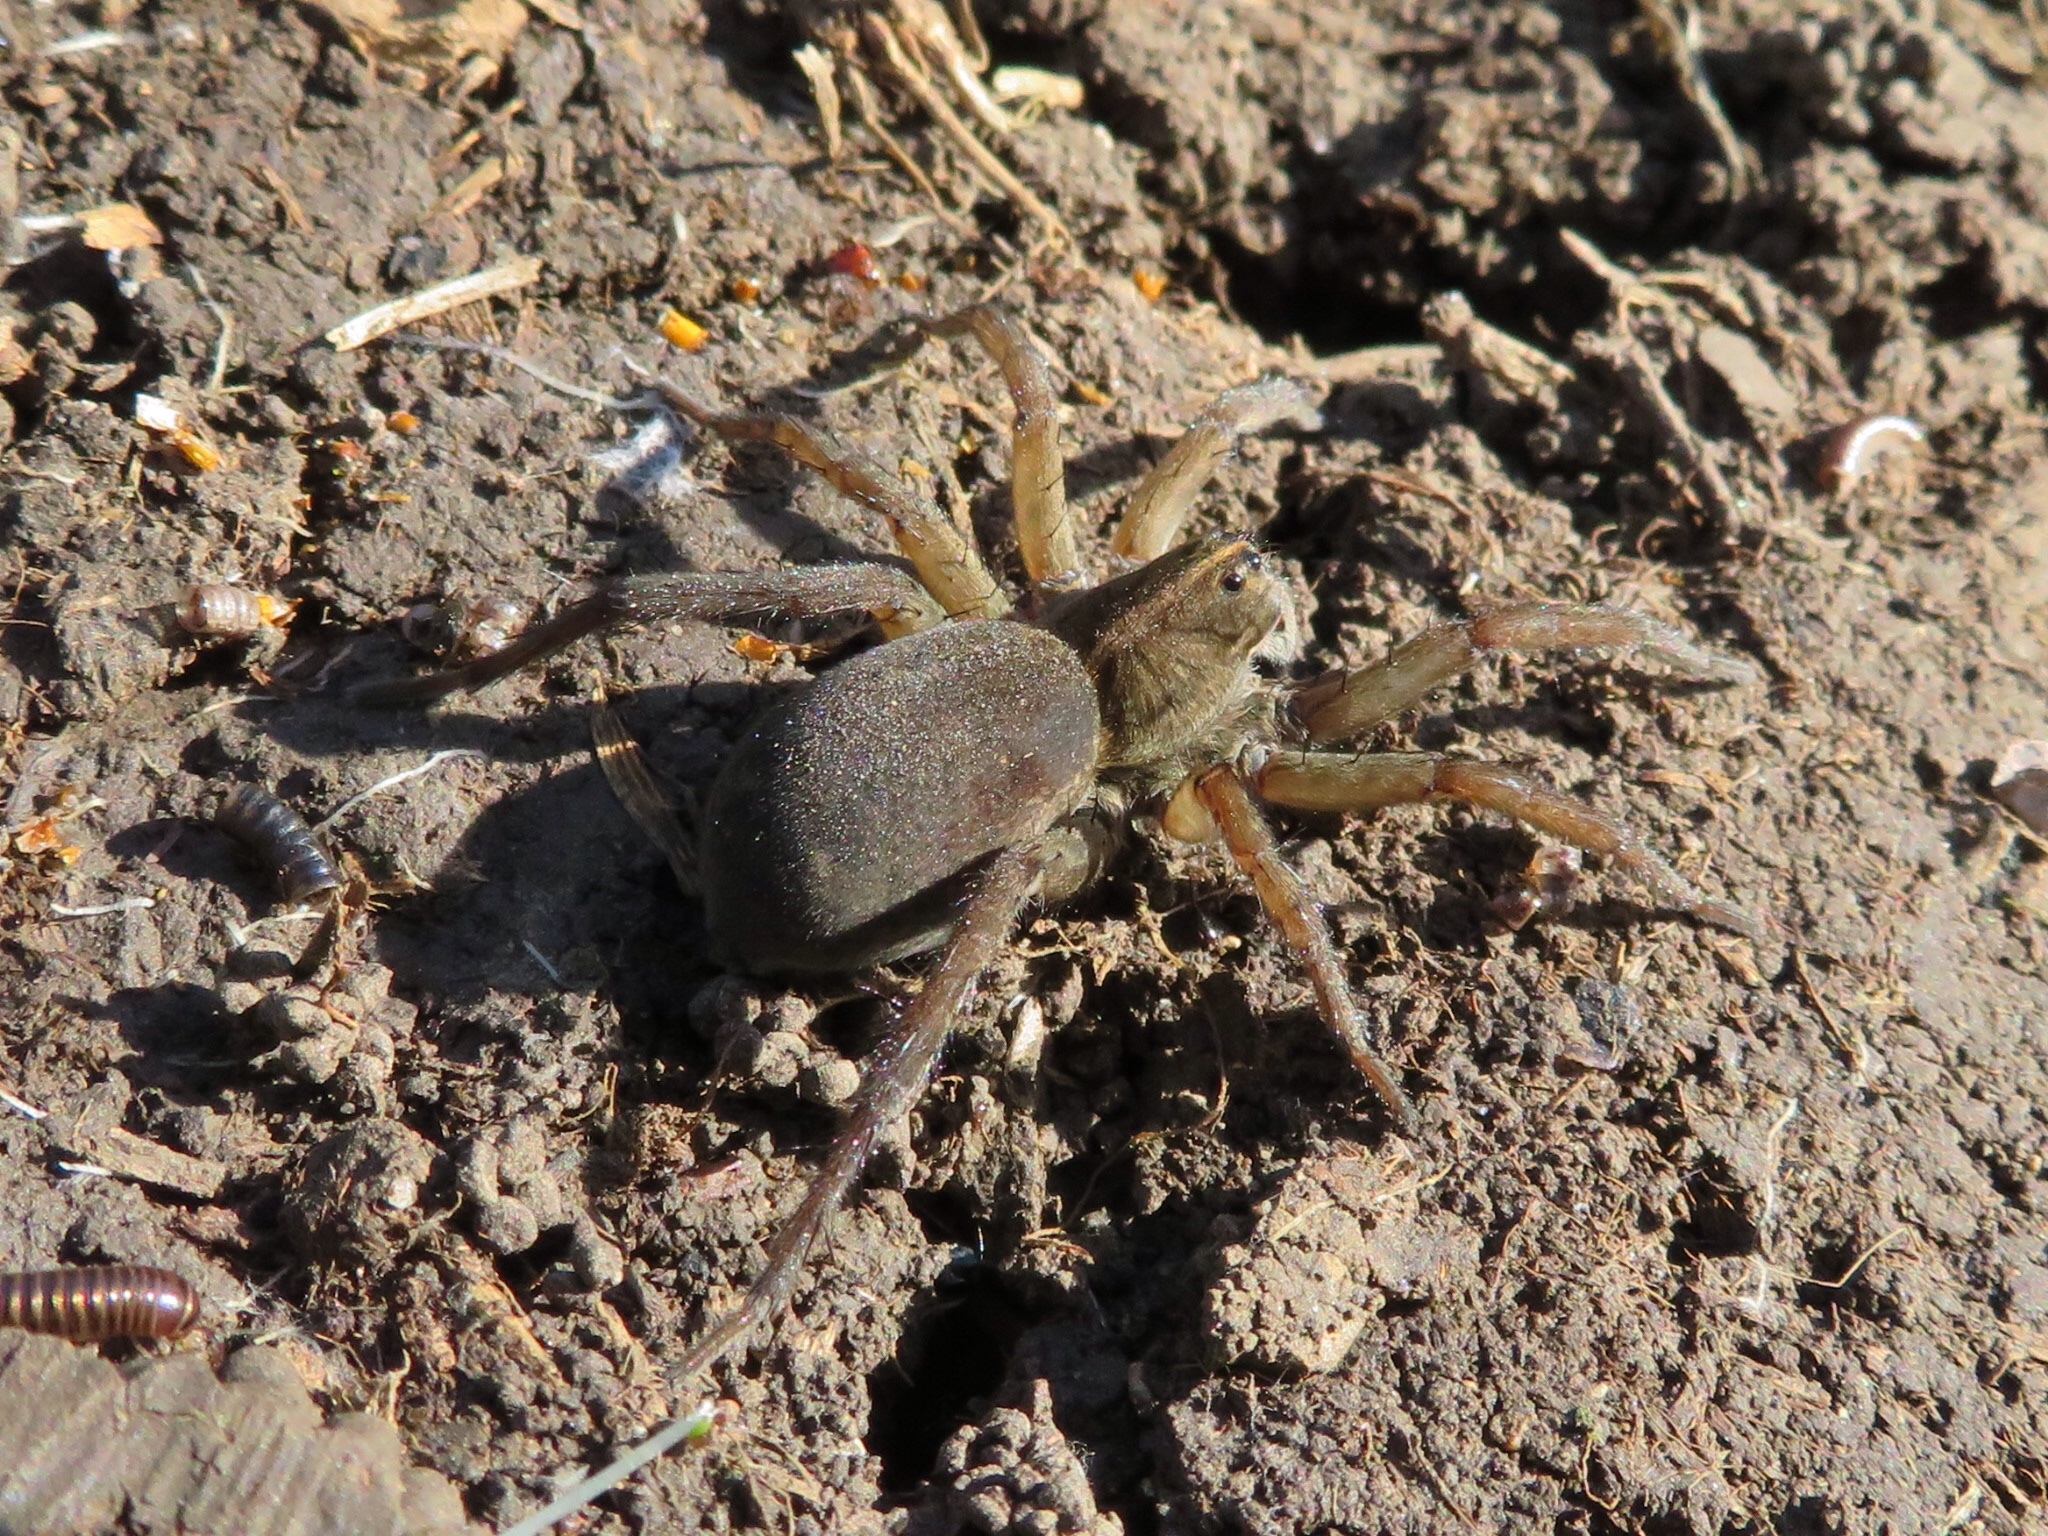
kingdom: Animalia
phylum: Arthropoda
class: Arachnida
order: Araneae
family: Lycosidae
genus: Tigrosa
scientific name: Tigrosa helluo
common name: Wetland giant wolf spider
